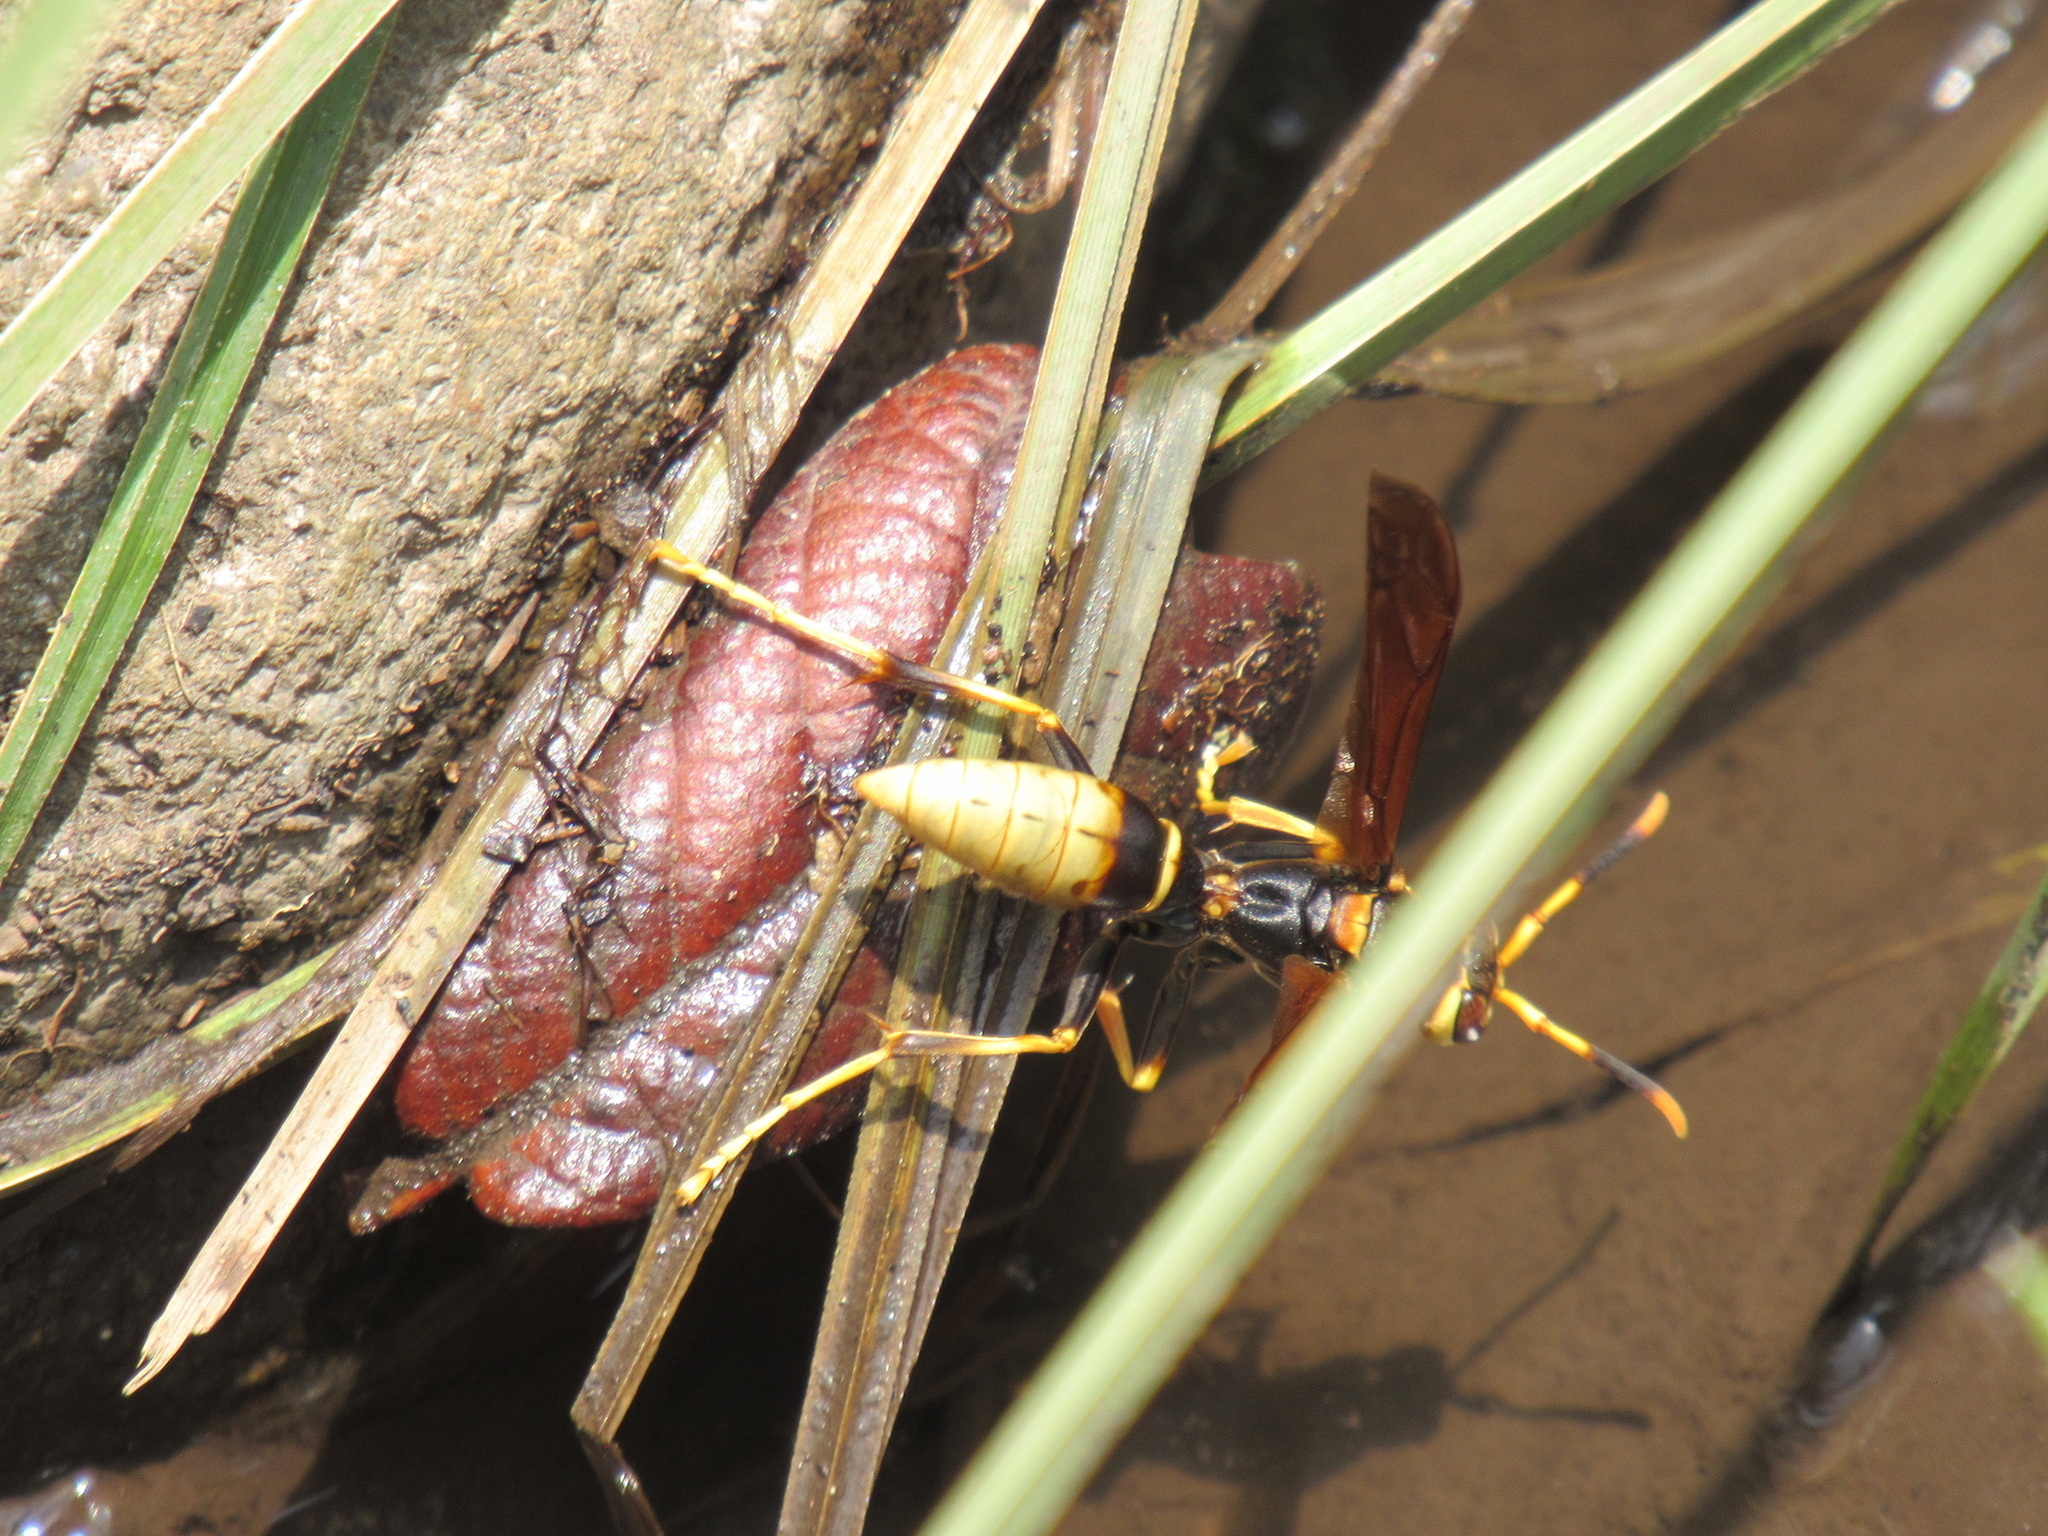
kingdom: Animalia
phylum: Arthropoda
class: Insecta
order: Hymenoptera
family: Eumenidae
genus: Polistes
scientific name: Polistes comanchus
